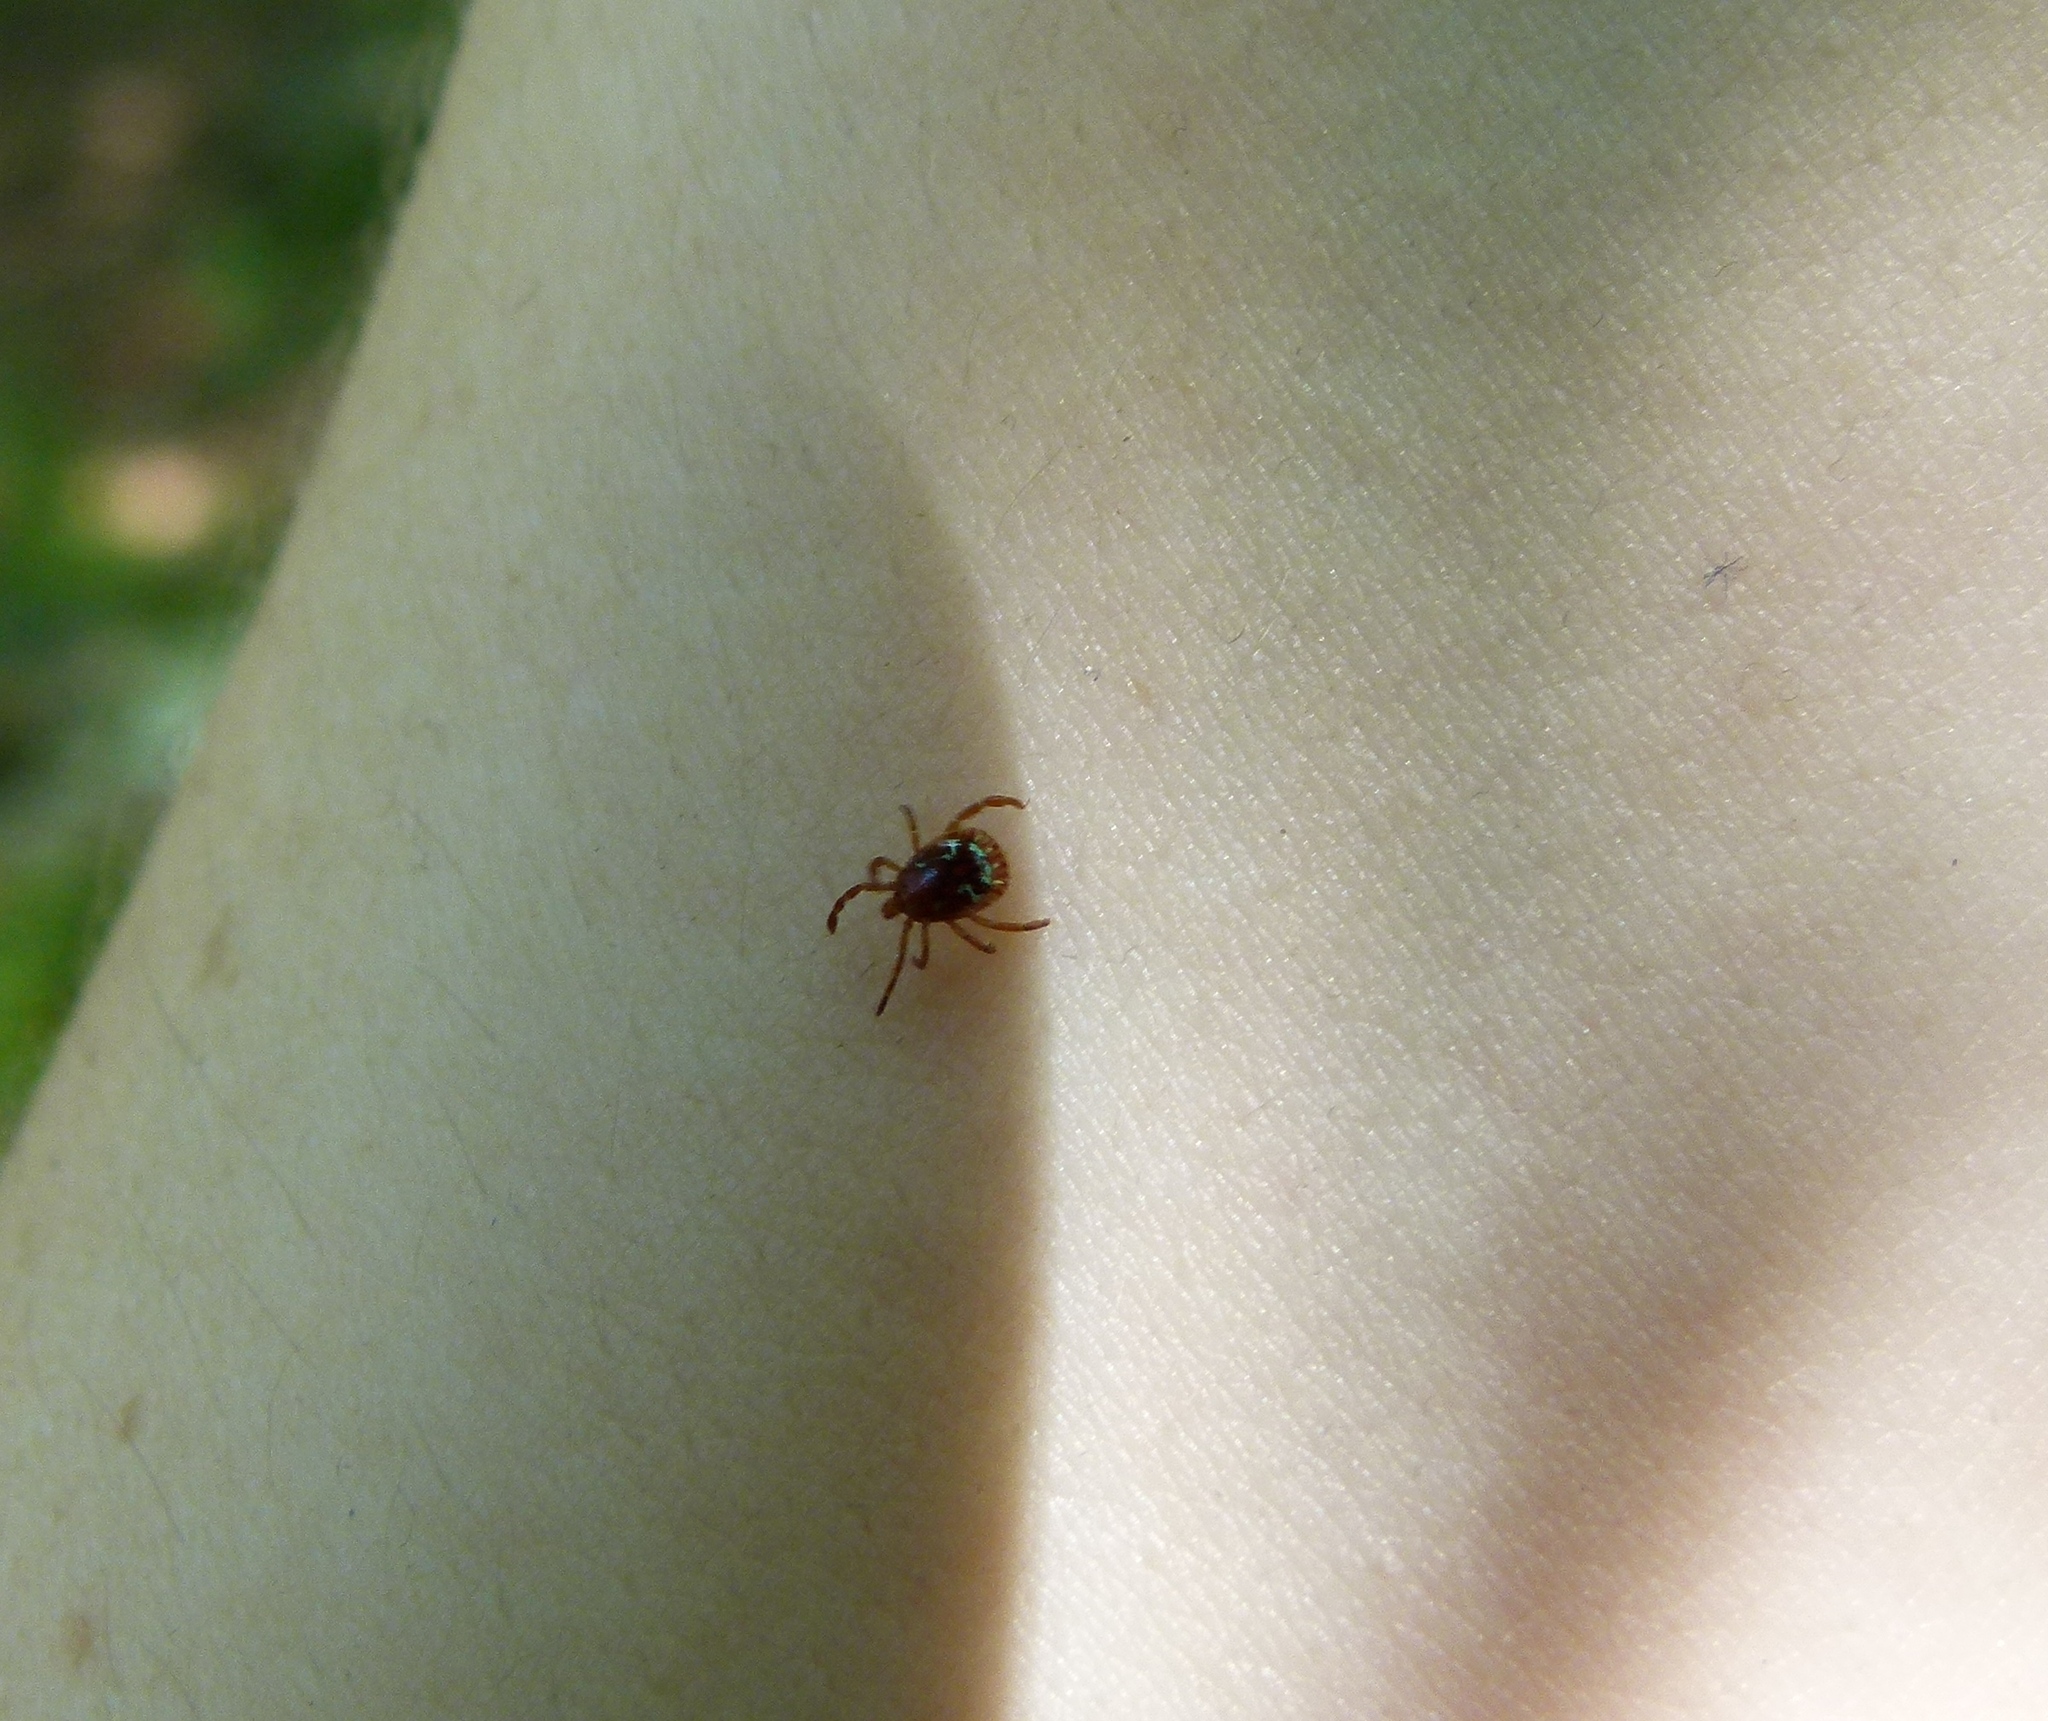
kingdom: Animalia
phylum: Arthropoda
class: Arachnida
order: Ixodida
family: Ixodidae
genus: Amblyomma
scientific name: Amblyomma americanum
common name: Lone star tick
